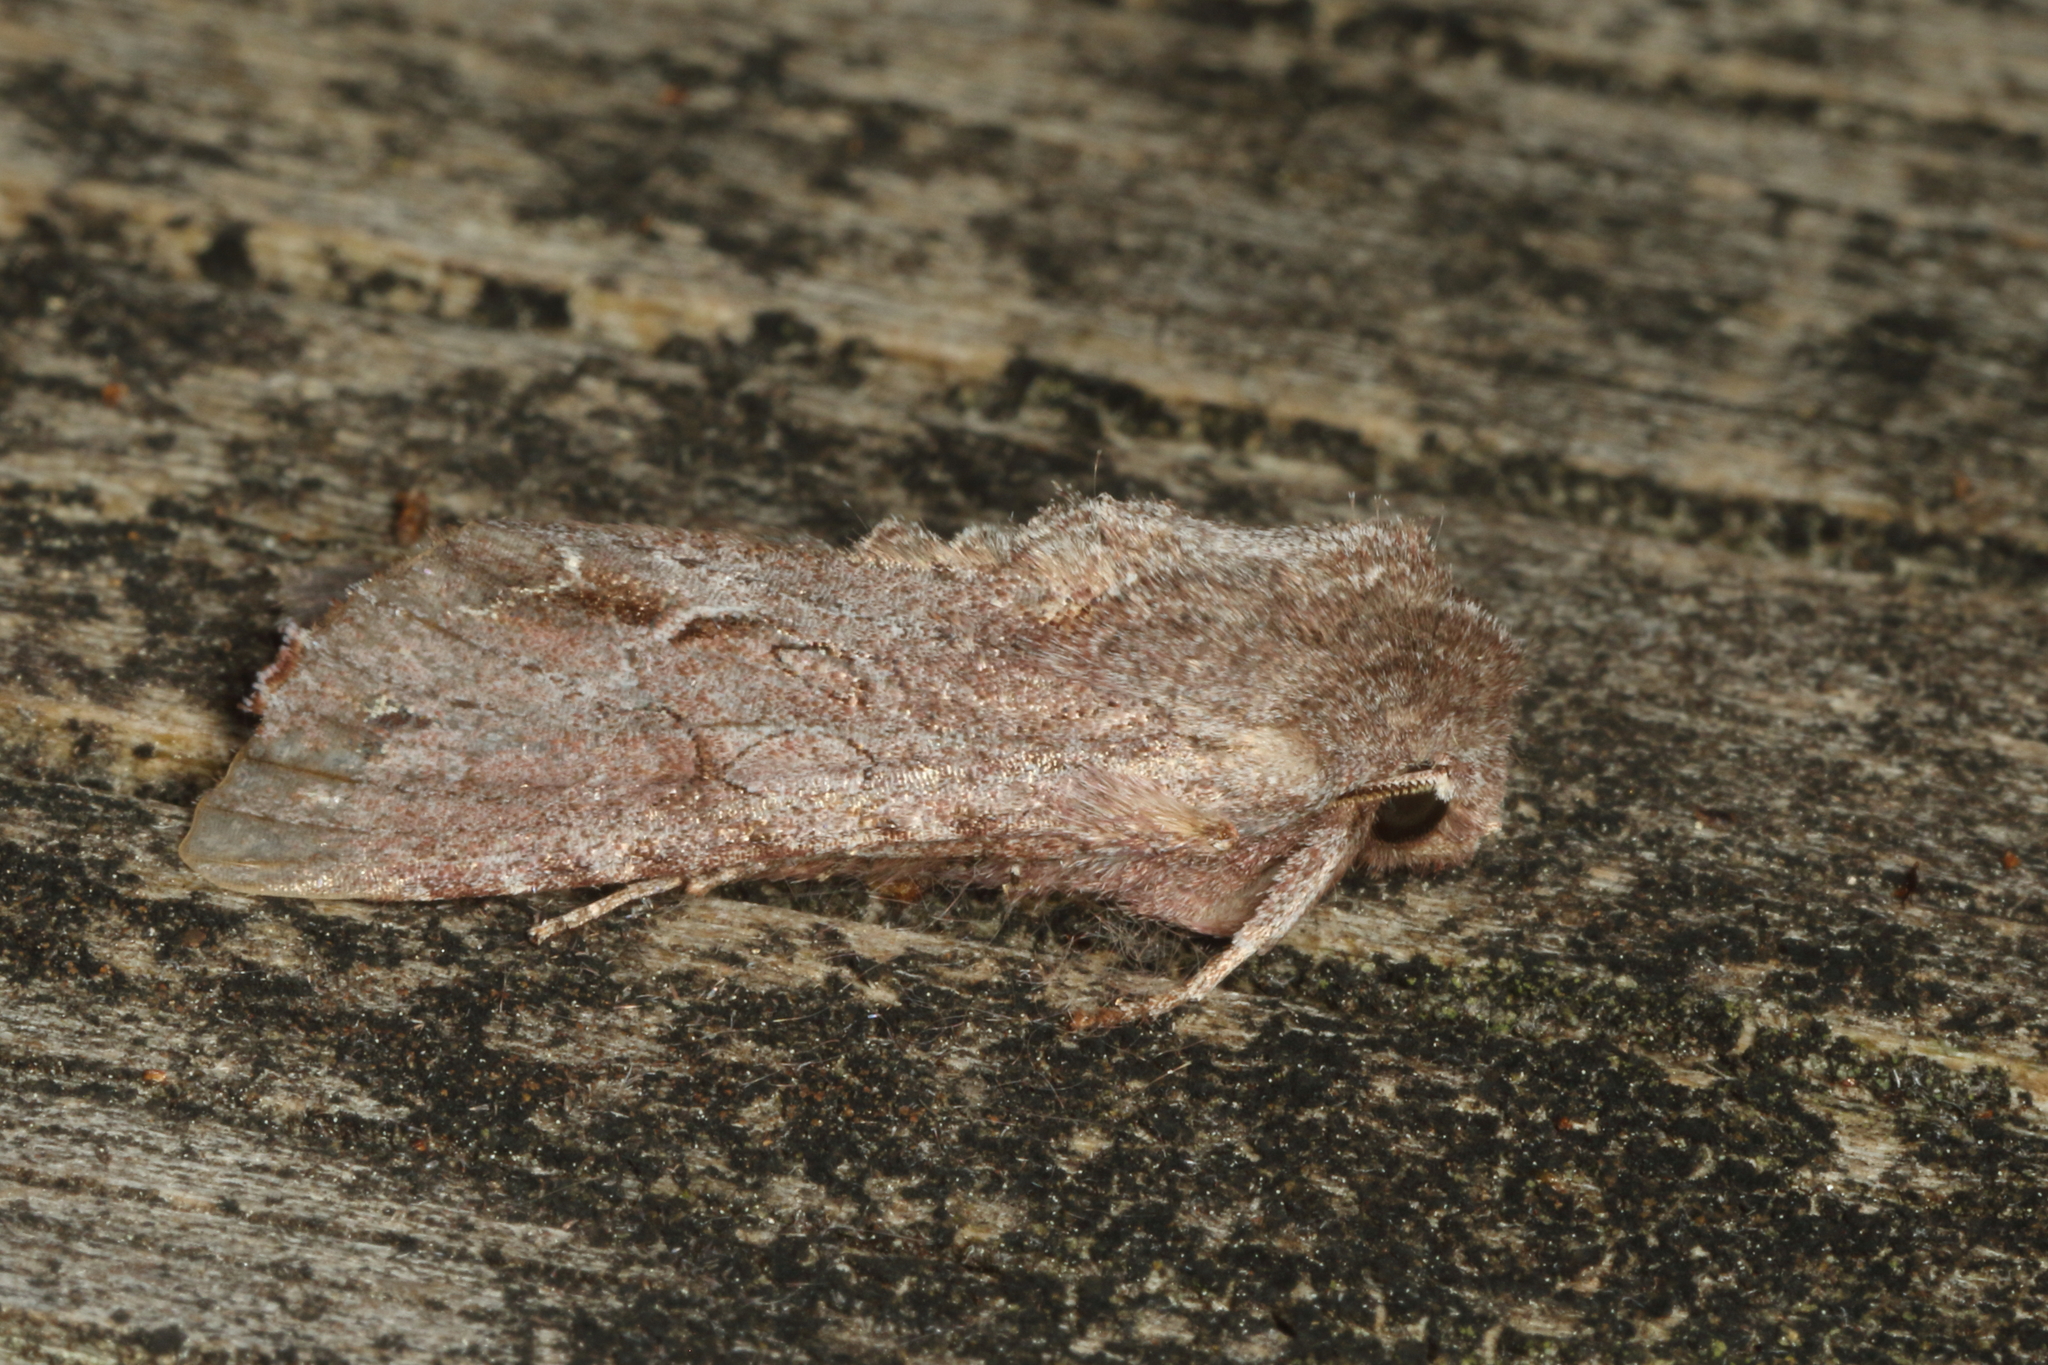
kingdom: Animalia
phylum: Arthropoda
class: Insecta
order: Lepidoptera
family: Noctuidae
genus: Ichneutica
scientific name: Ichneutica
